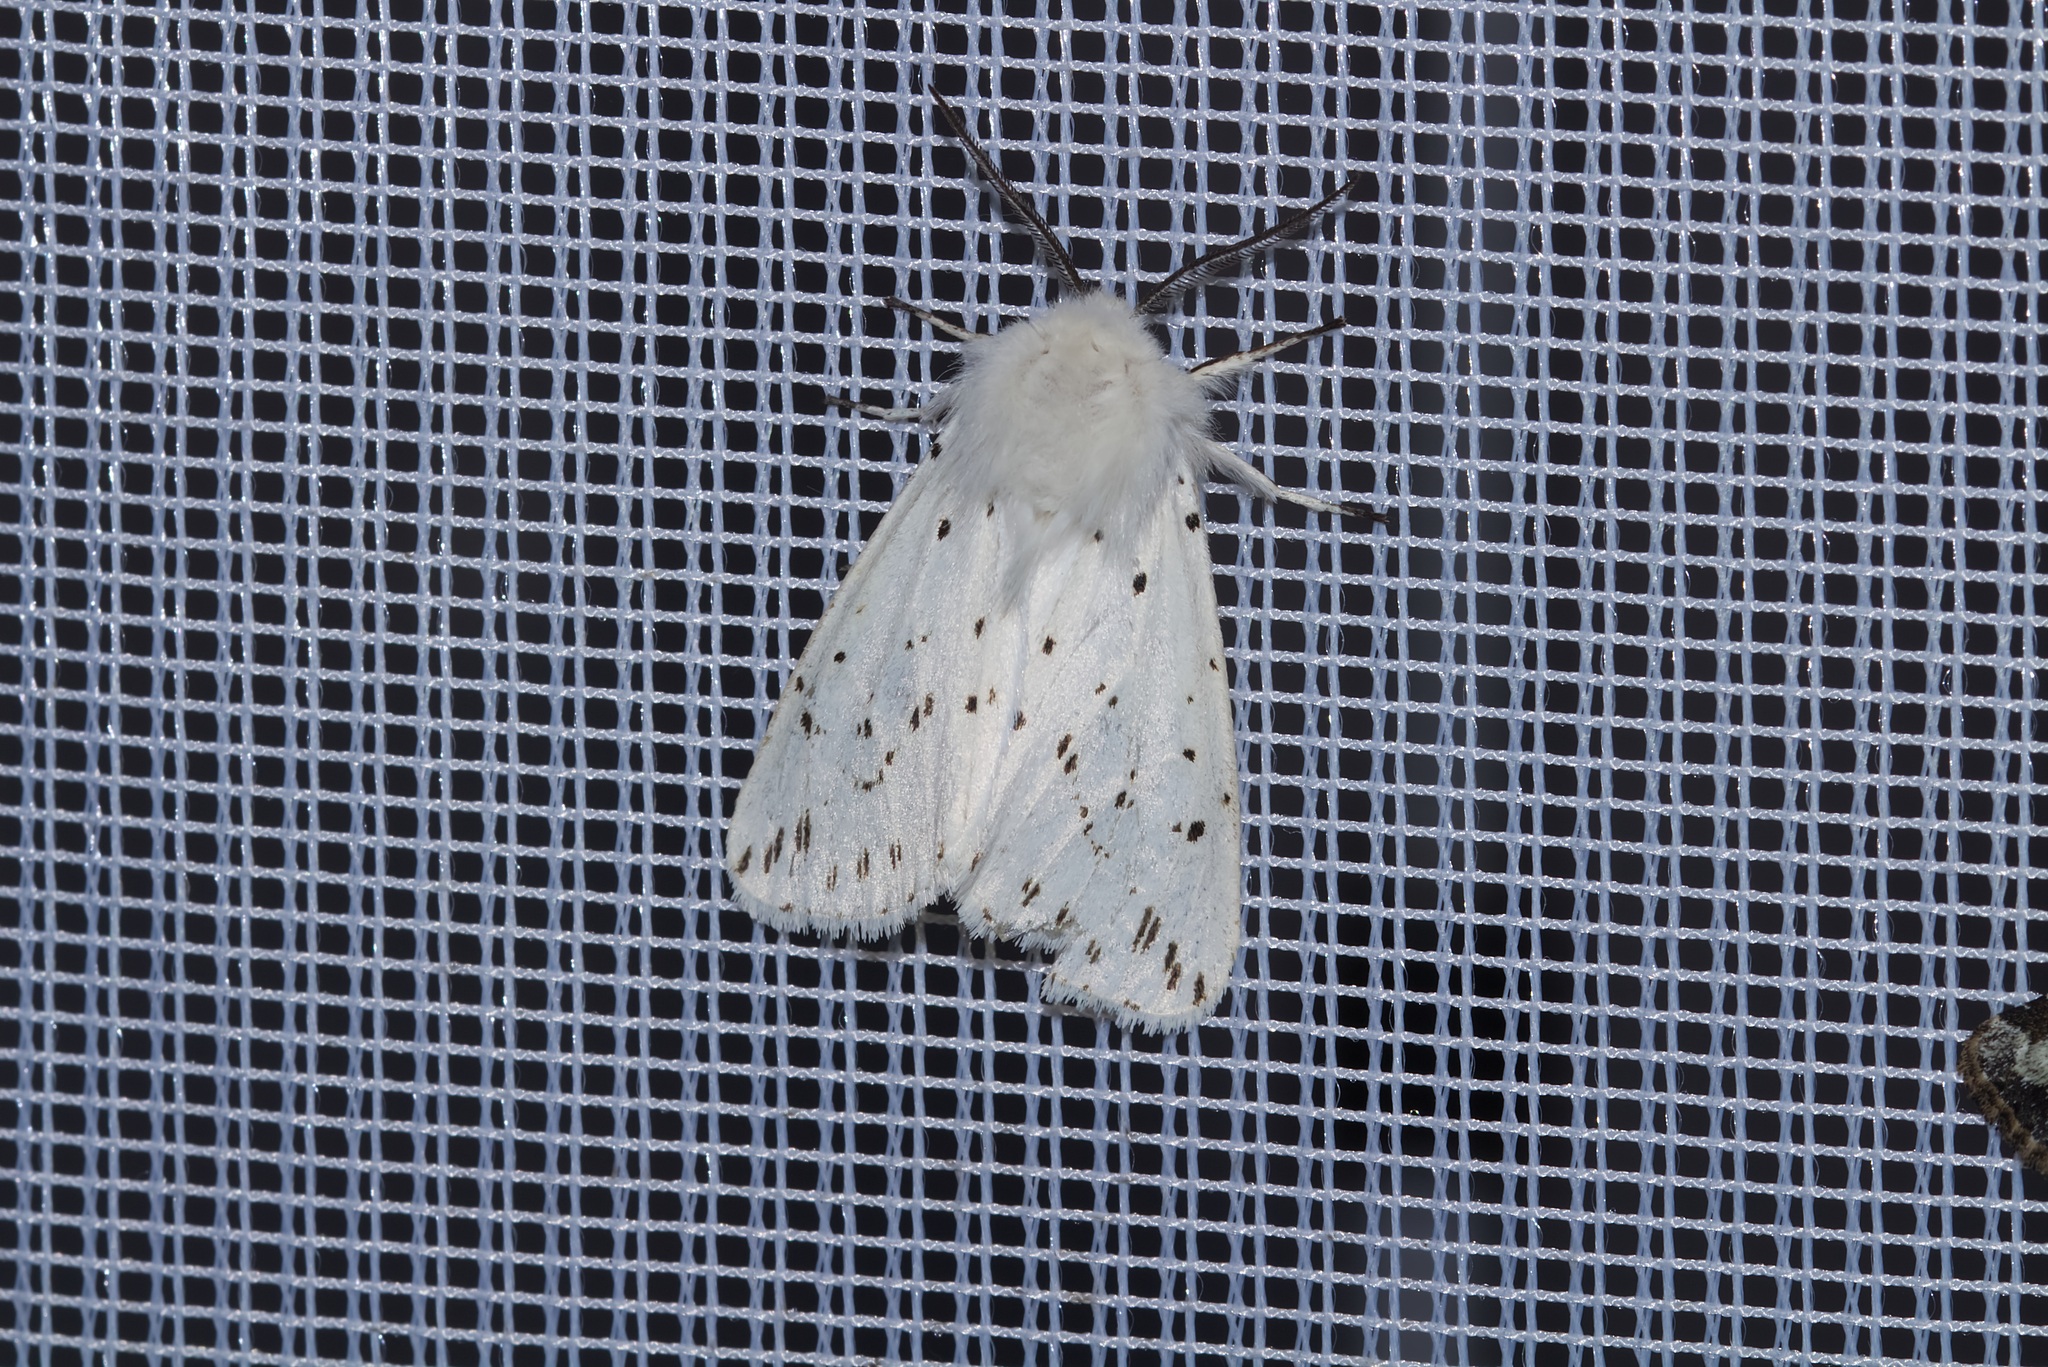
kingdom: Animalia
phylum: Arthropoda
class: Insecta
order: Lepidoptera
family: Erebidae
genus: Spilosoma
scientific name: Spilosoma lubricipeda
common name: White ermine
